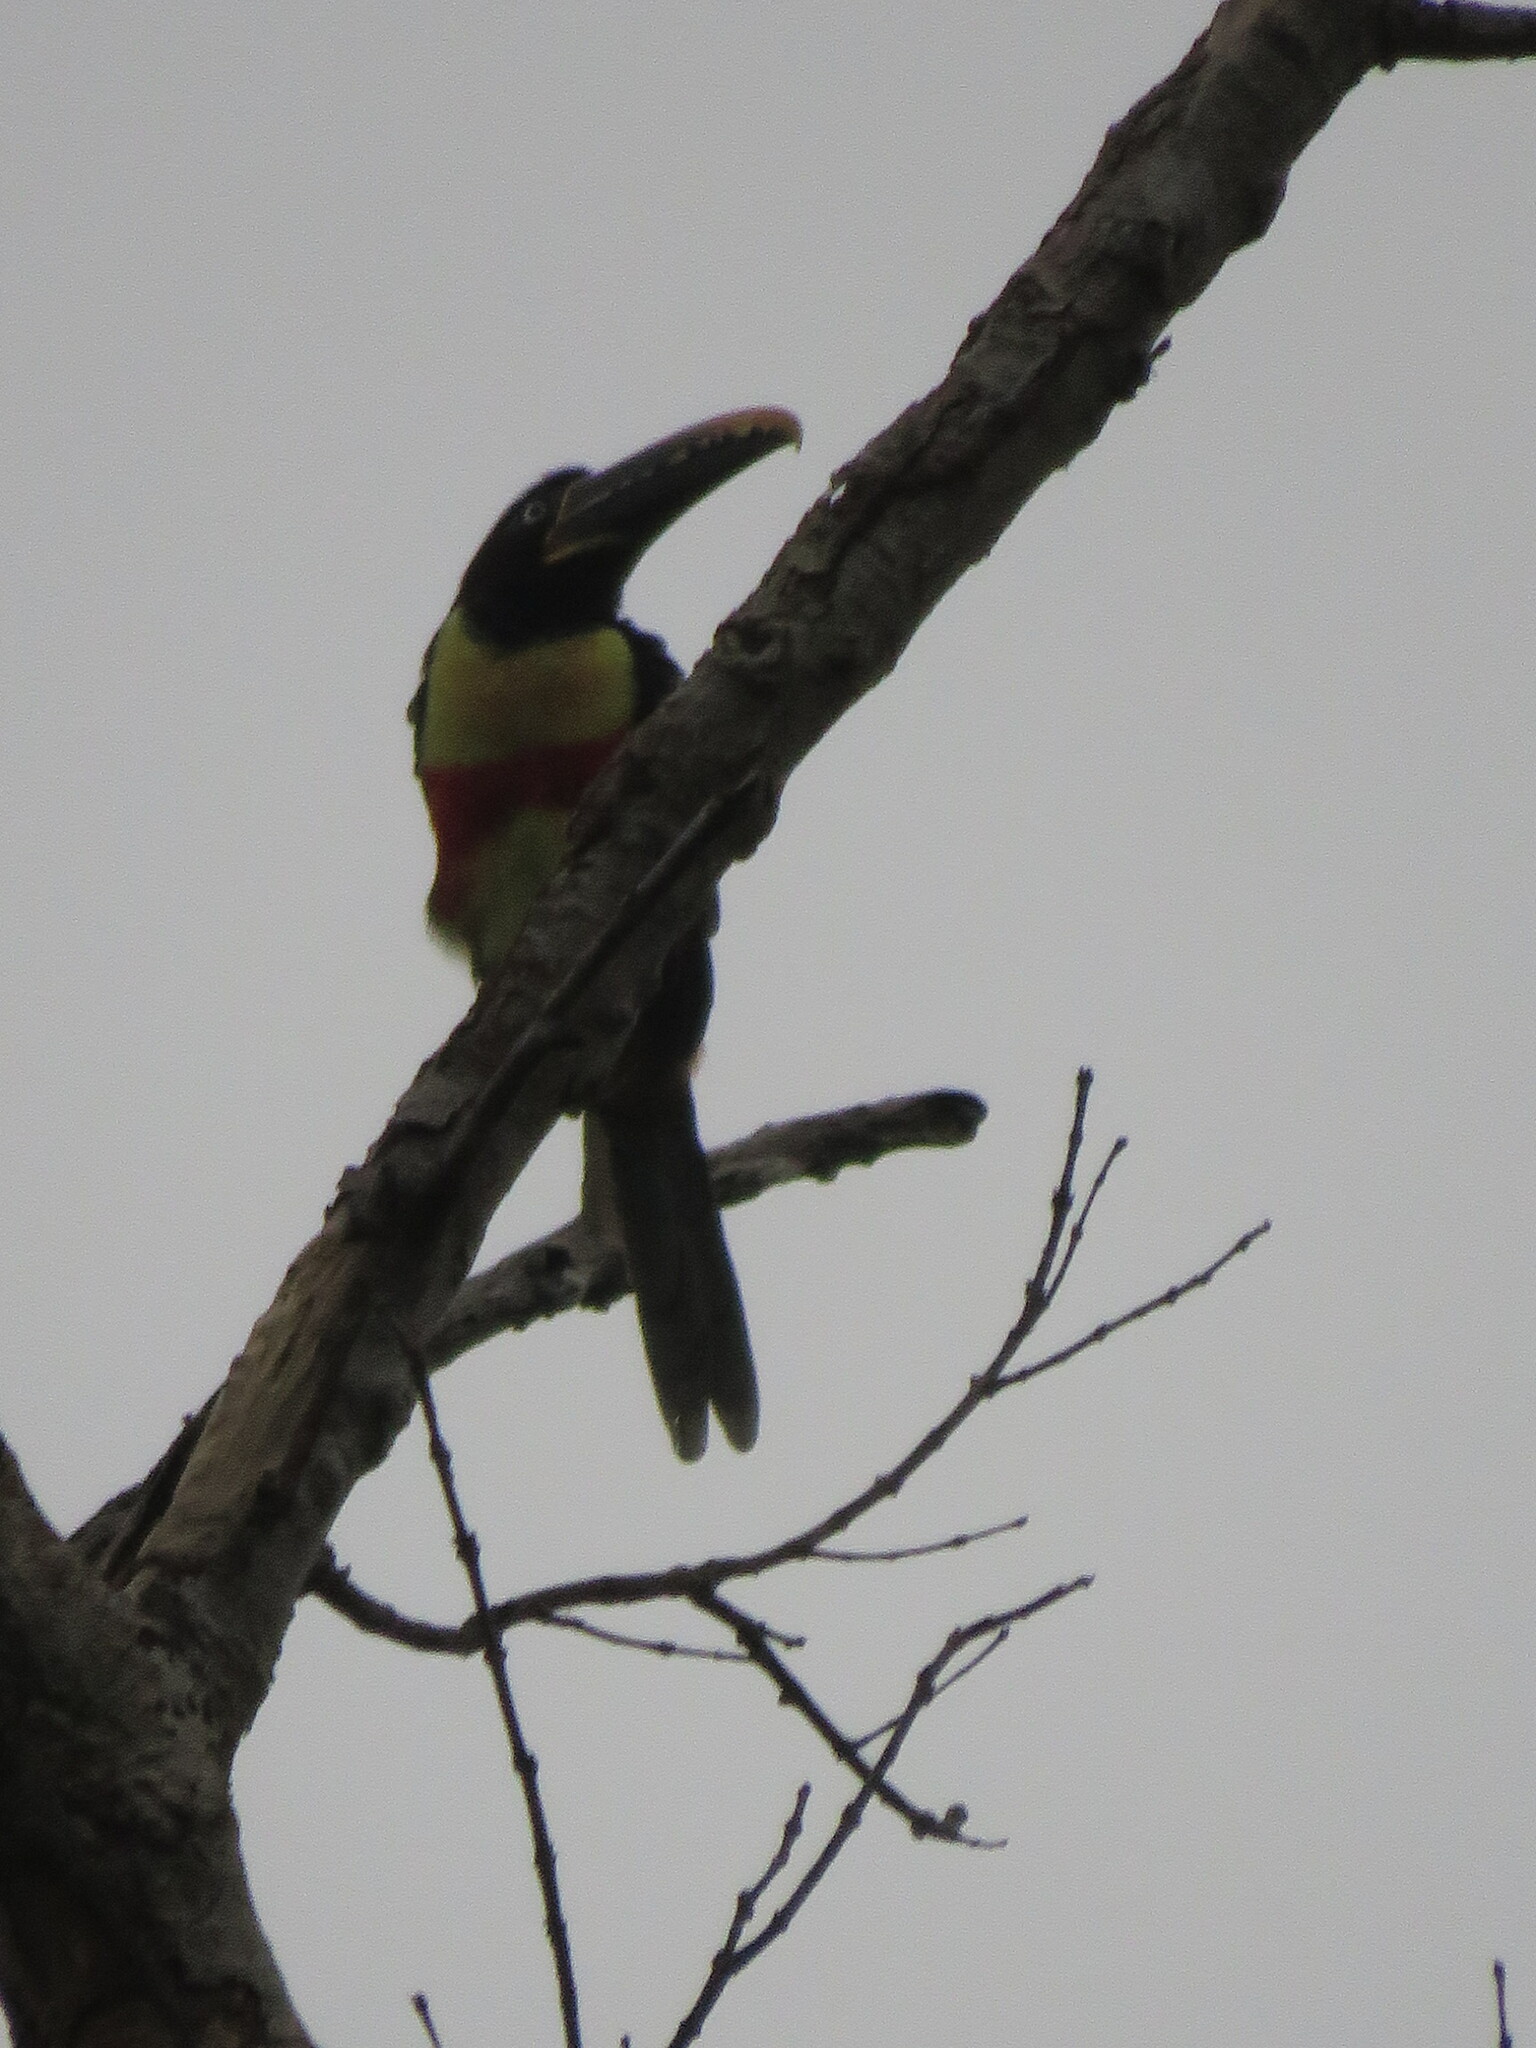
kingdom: Animalia
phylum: Chordata
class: Aves
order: Piciformes
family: Ramphastidae
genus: Pteroglossus
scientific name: Pteroglossus castanotis
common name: Chestnut-eared aracari
